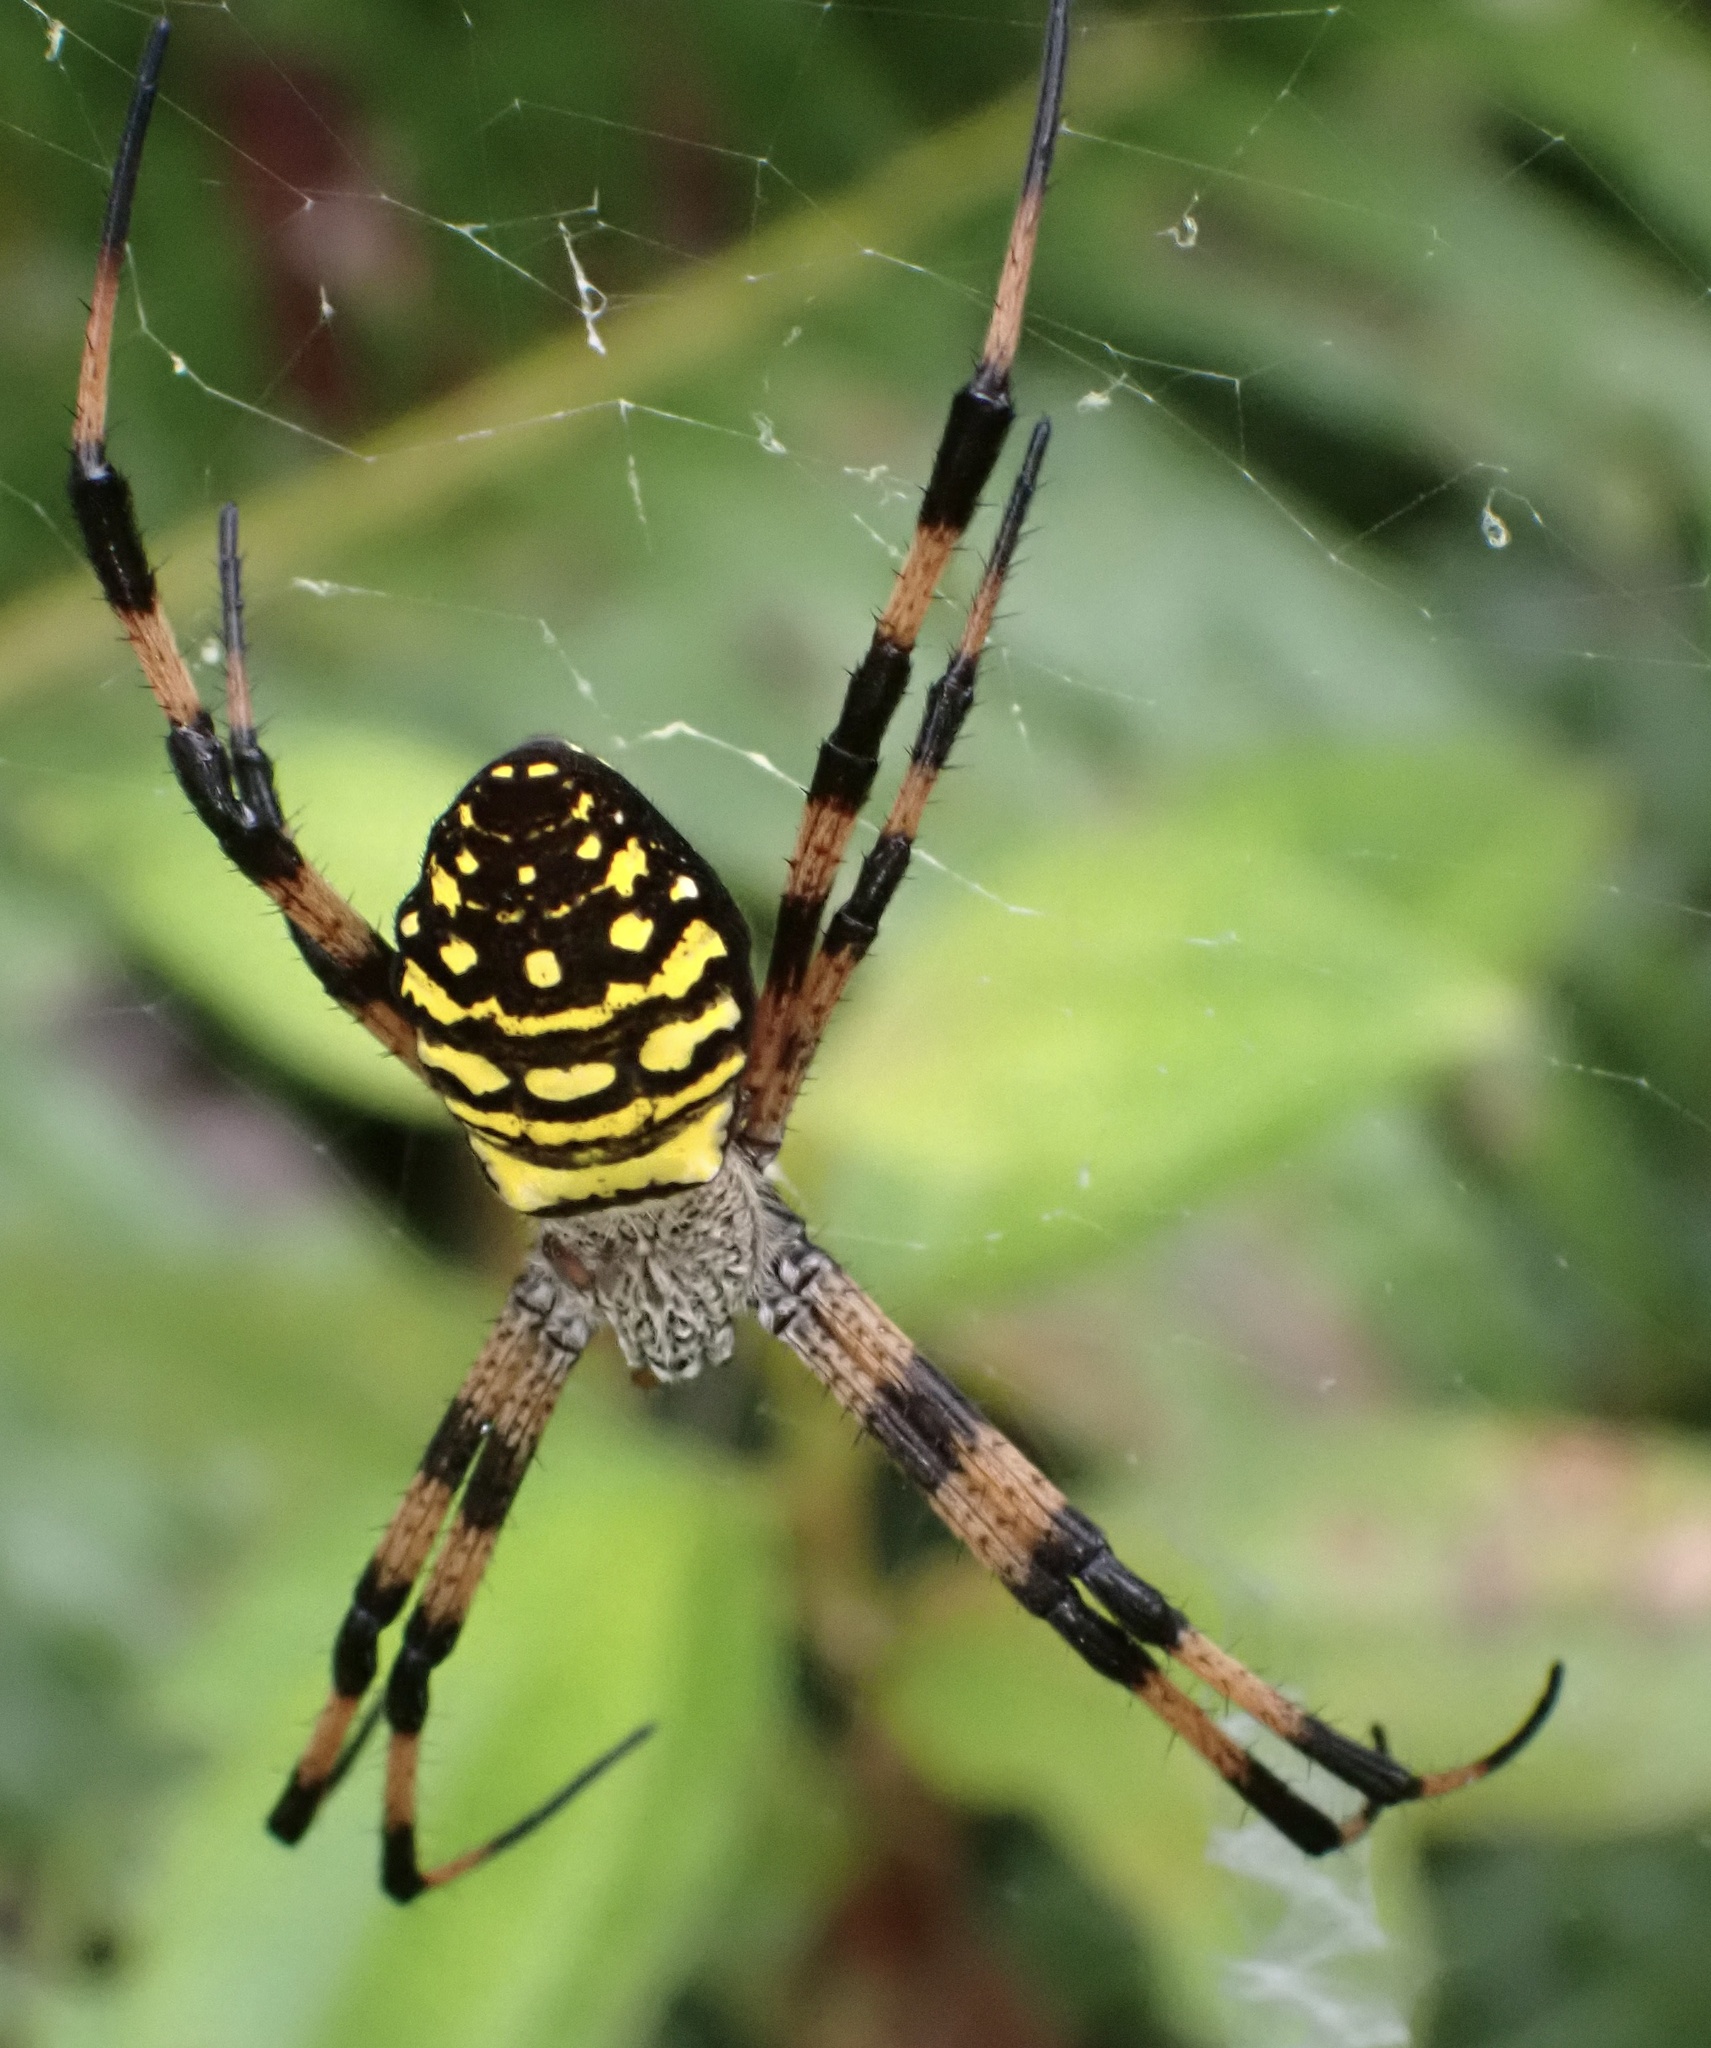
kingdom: Animalia
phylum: Arthropoda
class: Arachnida
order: Araneae
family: Araneidae
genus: Argiope
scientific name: Argiope picta
